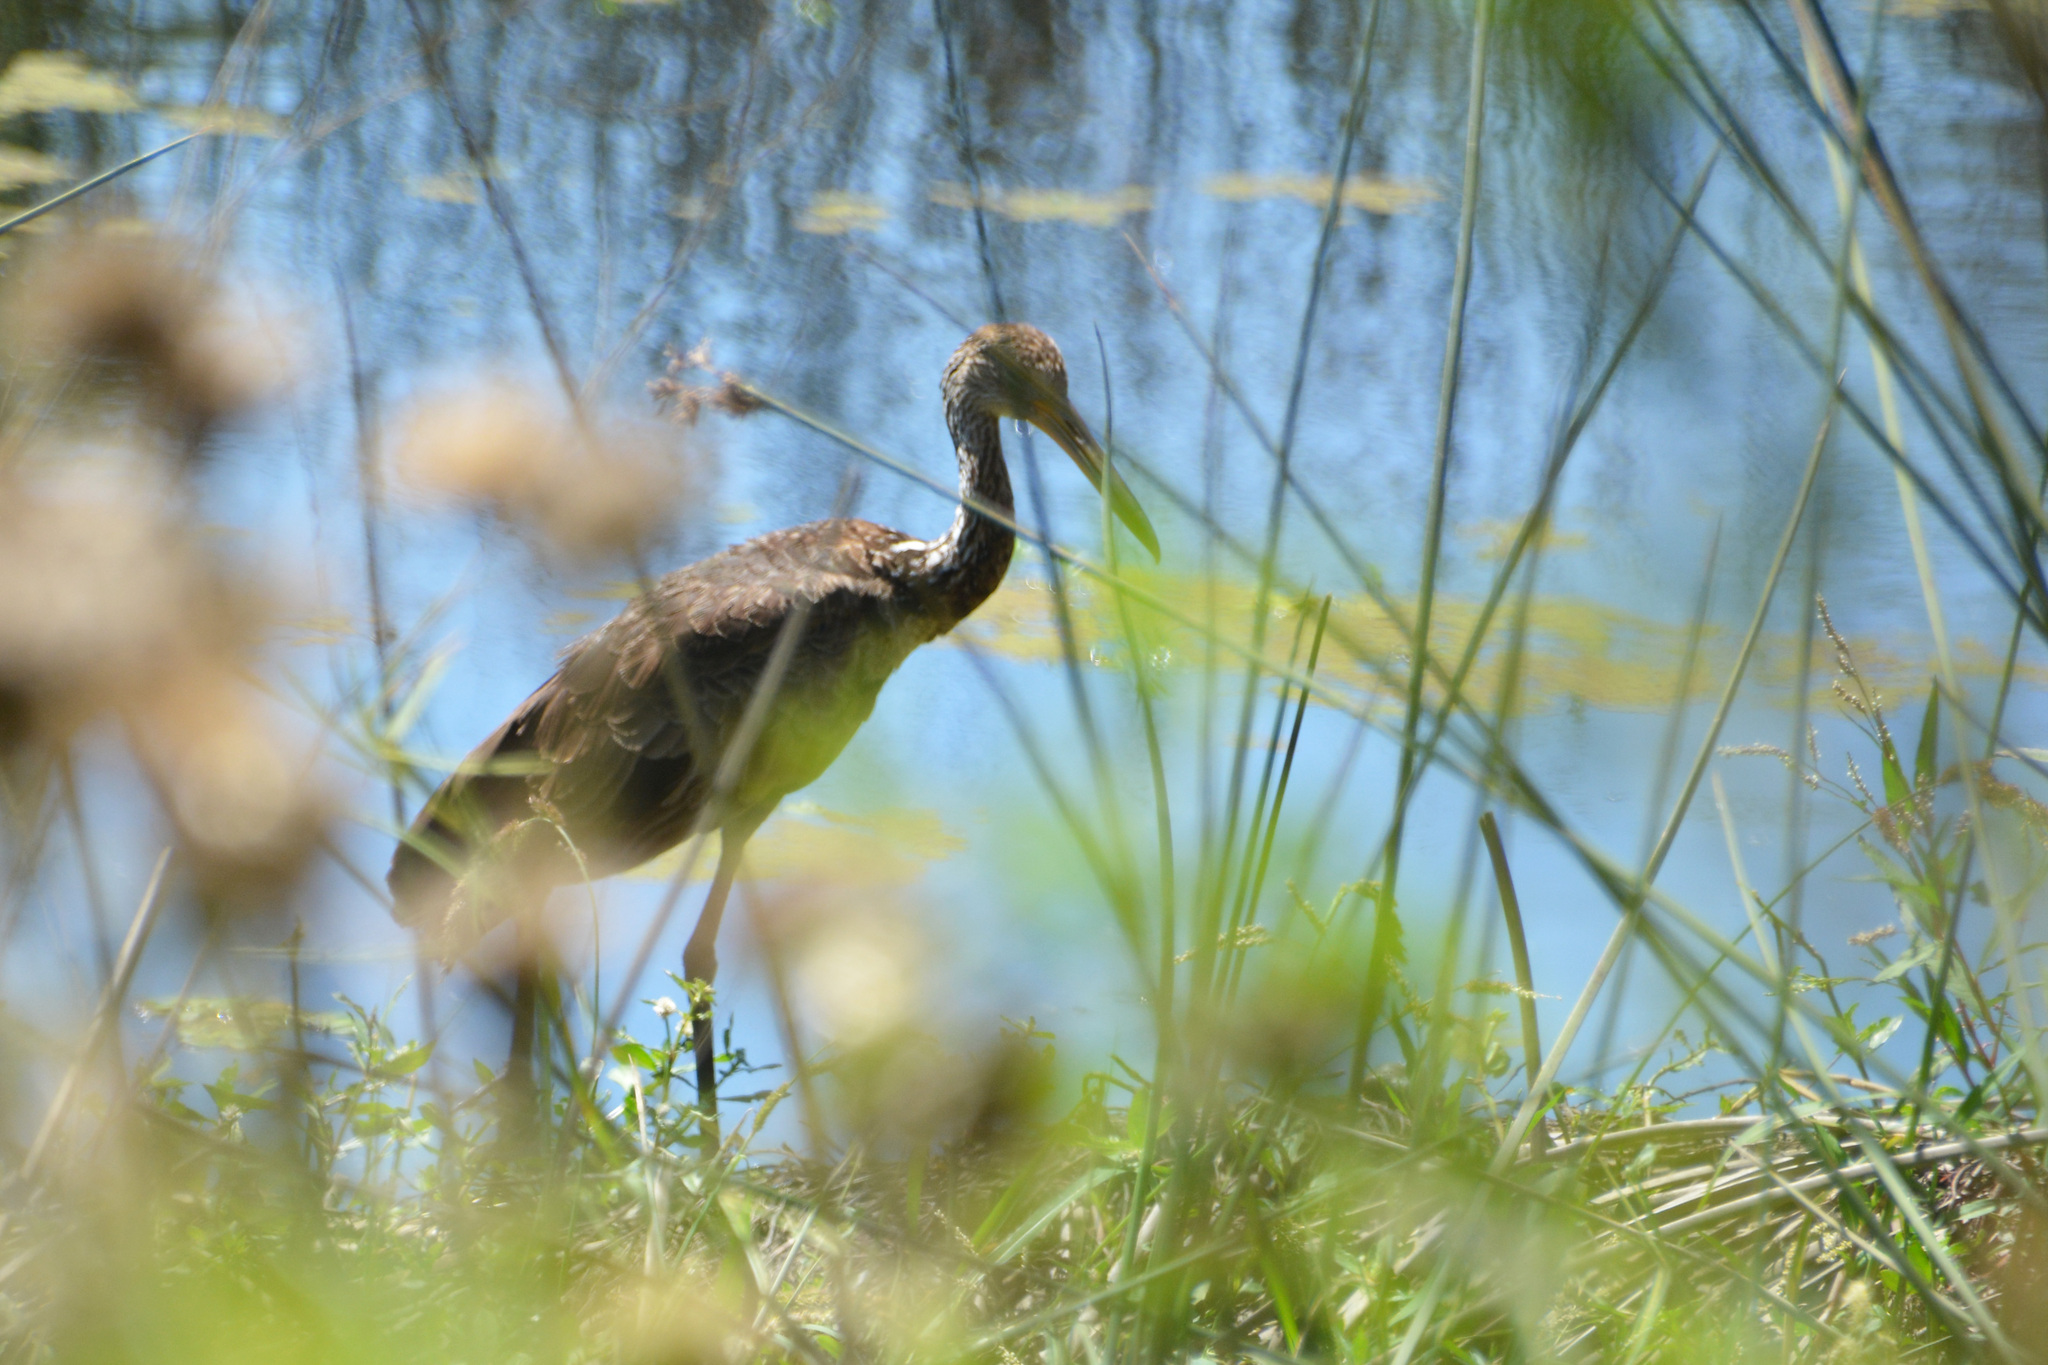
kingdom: Animalia
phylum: Chordata
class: Aves
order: Gruiformes
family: Aramidae
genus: Aramus
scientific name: Aramus guarauna
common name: Limpkin
